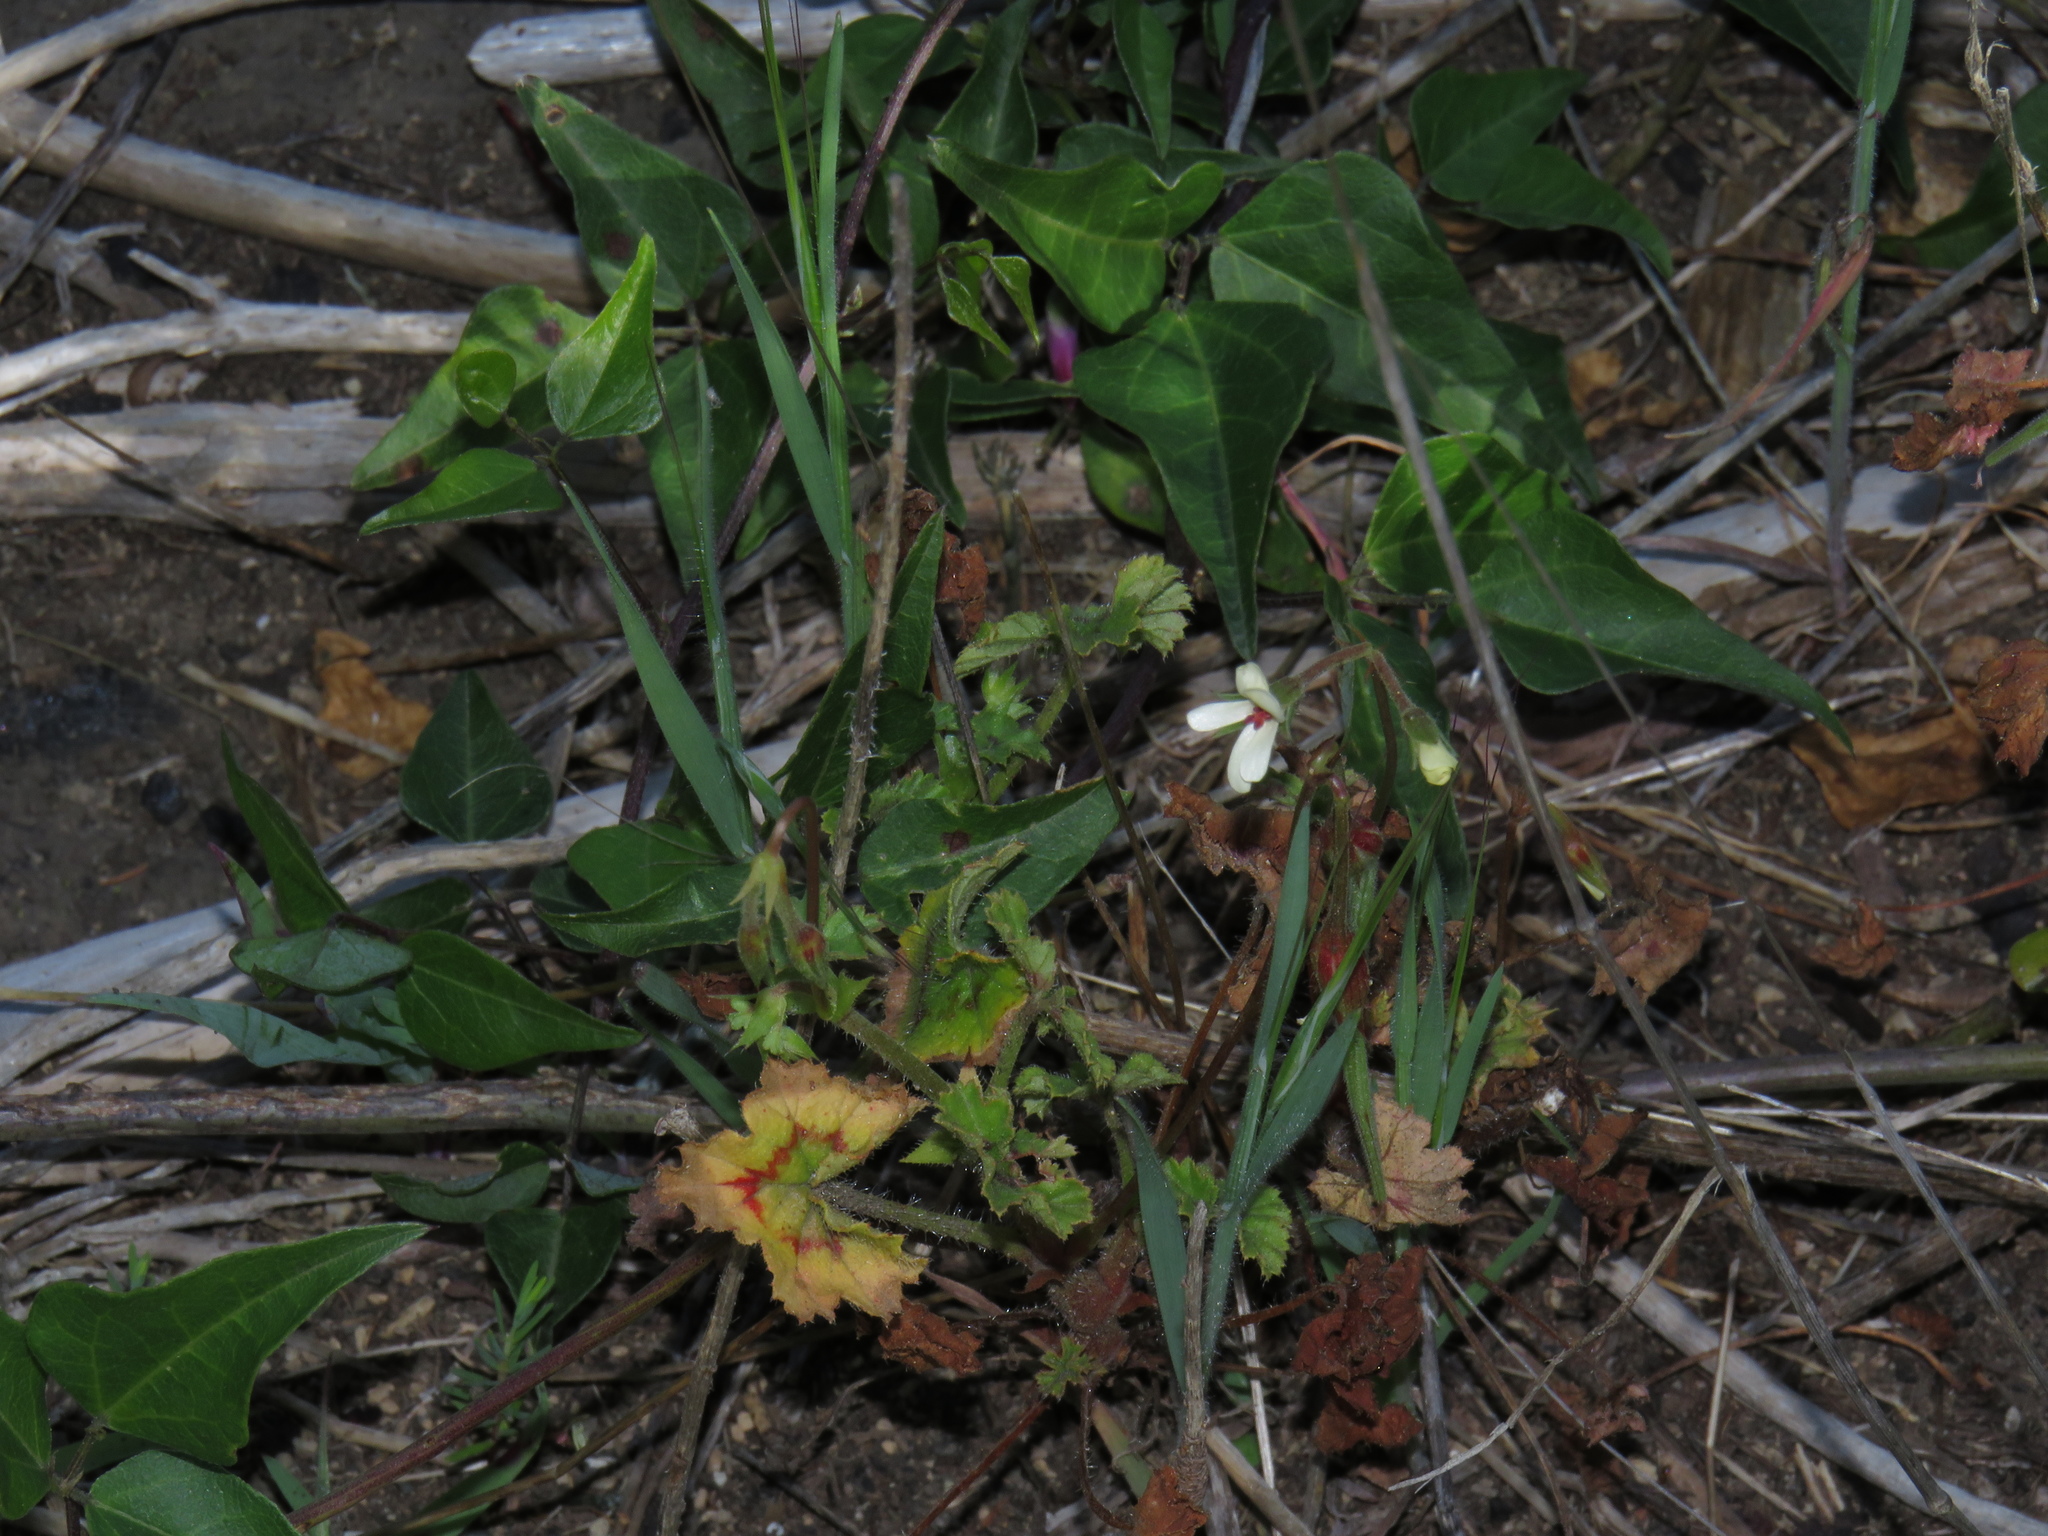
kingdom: Plantae
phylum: Tracheophyta
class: Magnoliopsida
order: Geraniales
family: Geraniaceae
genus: Pelargonium
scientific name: Pelargonium elongatum
